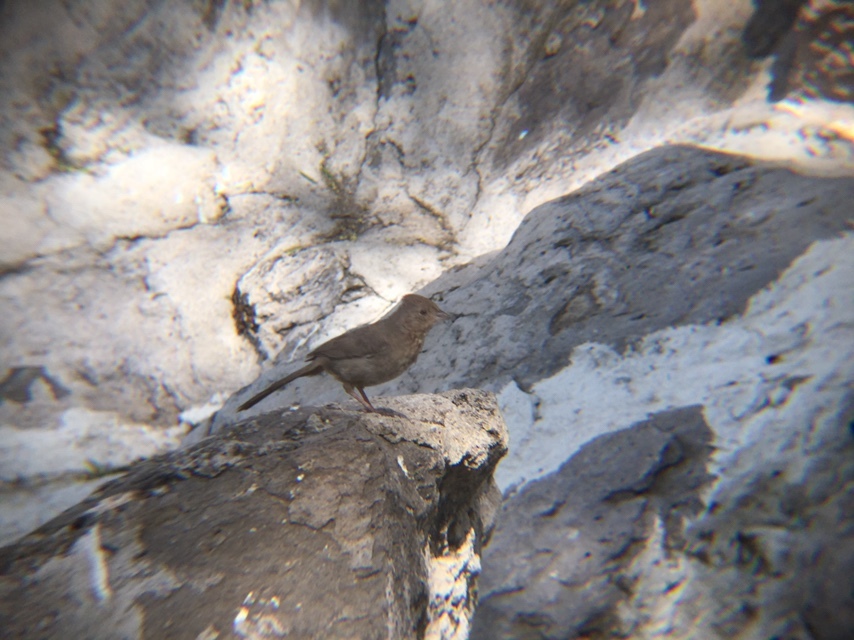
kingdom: Animalia
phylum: Chordata
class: Aves
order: Passeriformes
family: Passerellidae
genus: Melozone
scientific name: Melozone fusca
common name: Canyon towhee
